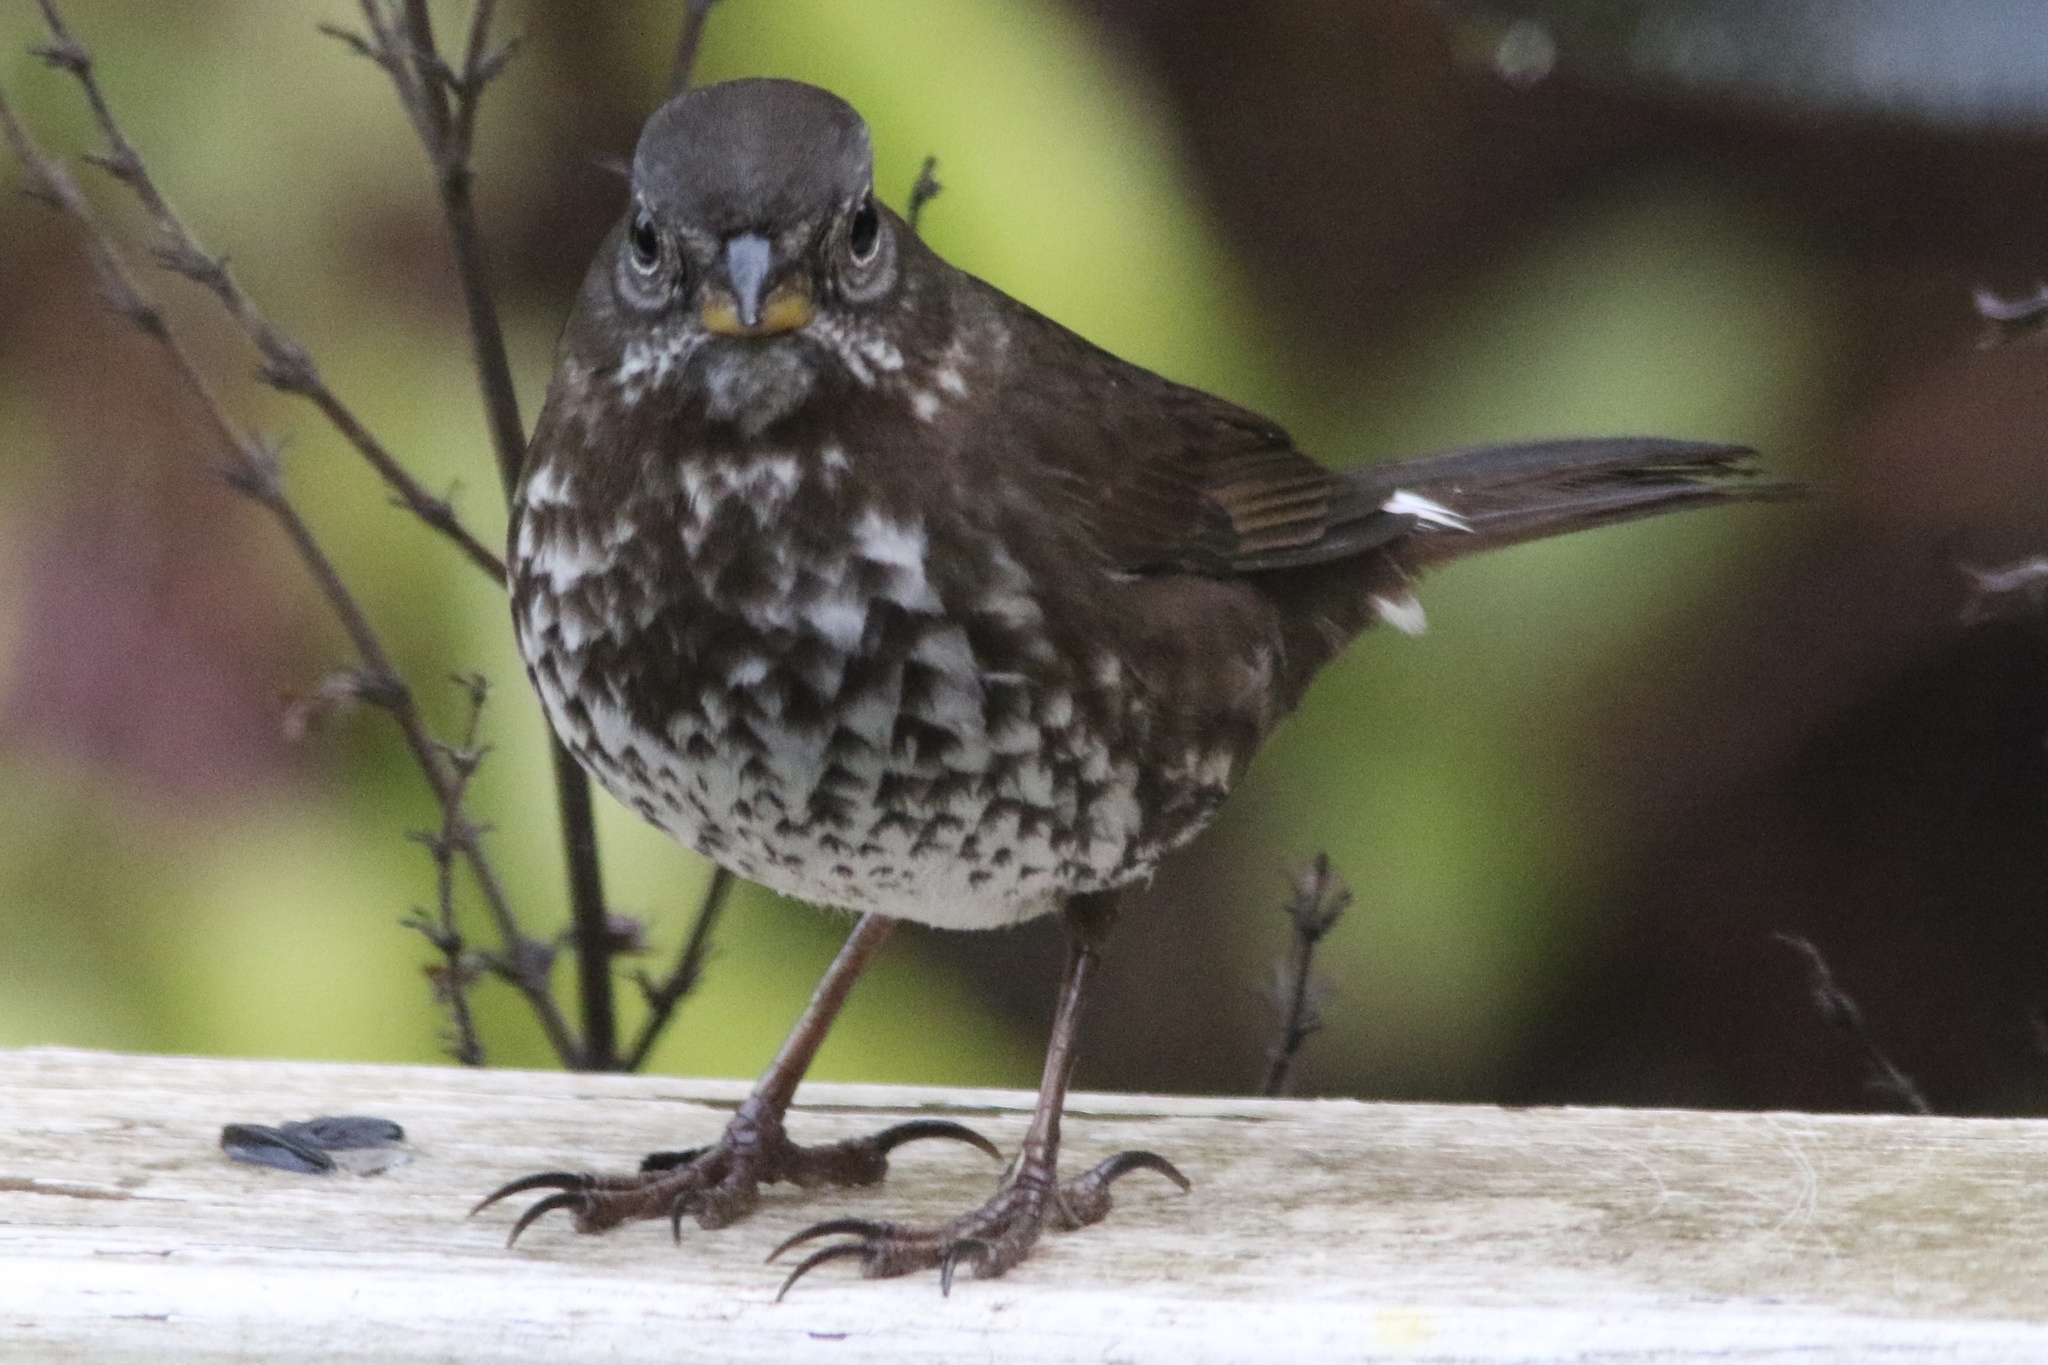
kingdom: Animalia
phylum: Chordata
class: Aves
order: Passeriformes
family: Passerellidae
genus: Passerella
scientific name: Passerella iliaca
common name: Fox sparrow
